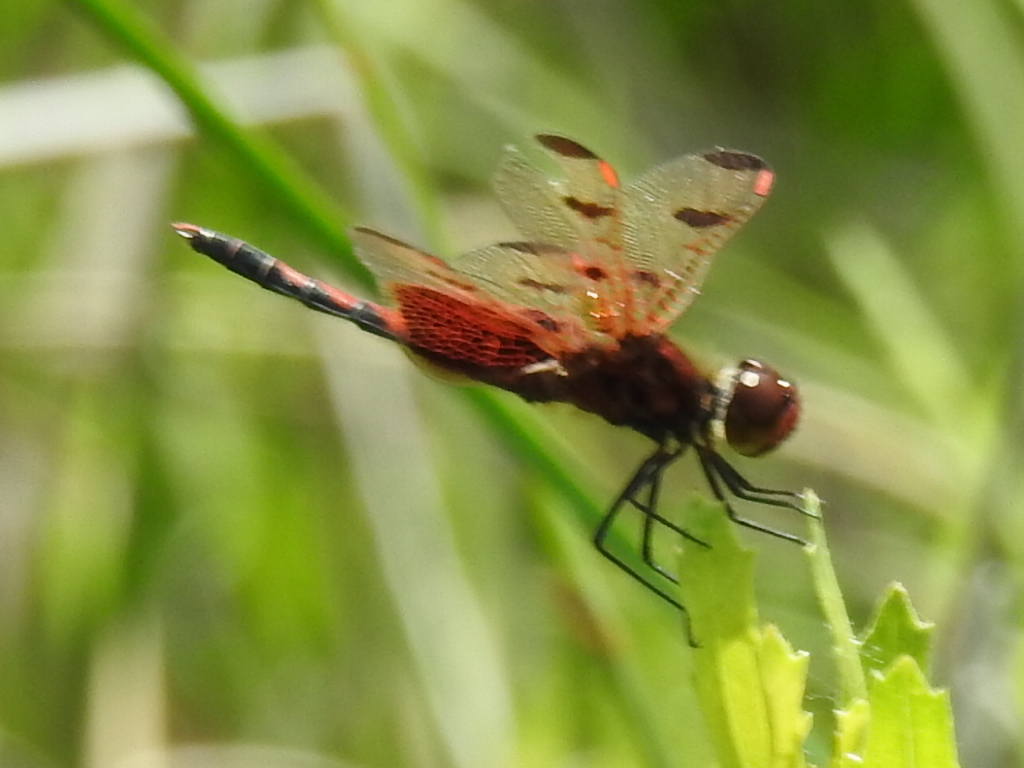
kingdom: Animalia
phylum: Arthropoda
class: Insecta
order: Odonata
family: Libellulidae
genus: Celithemis
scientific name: Celithemis elisa
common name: Calico pennant
